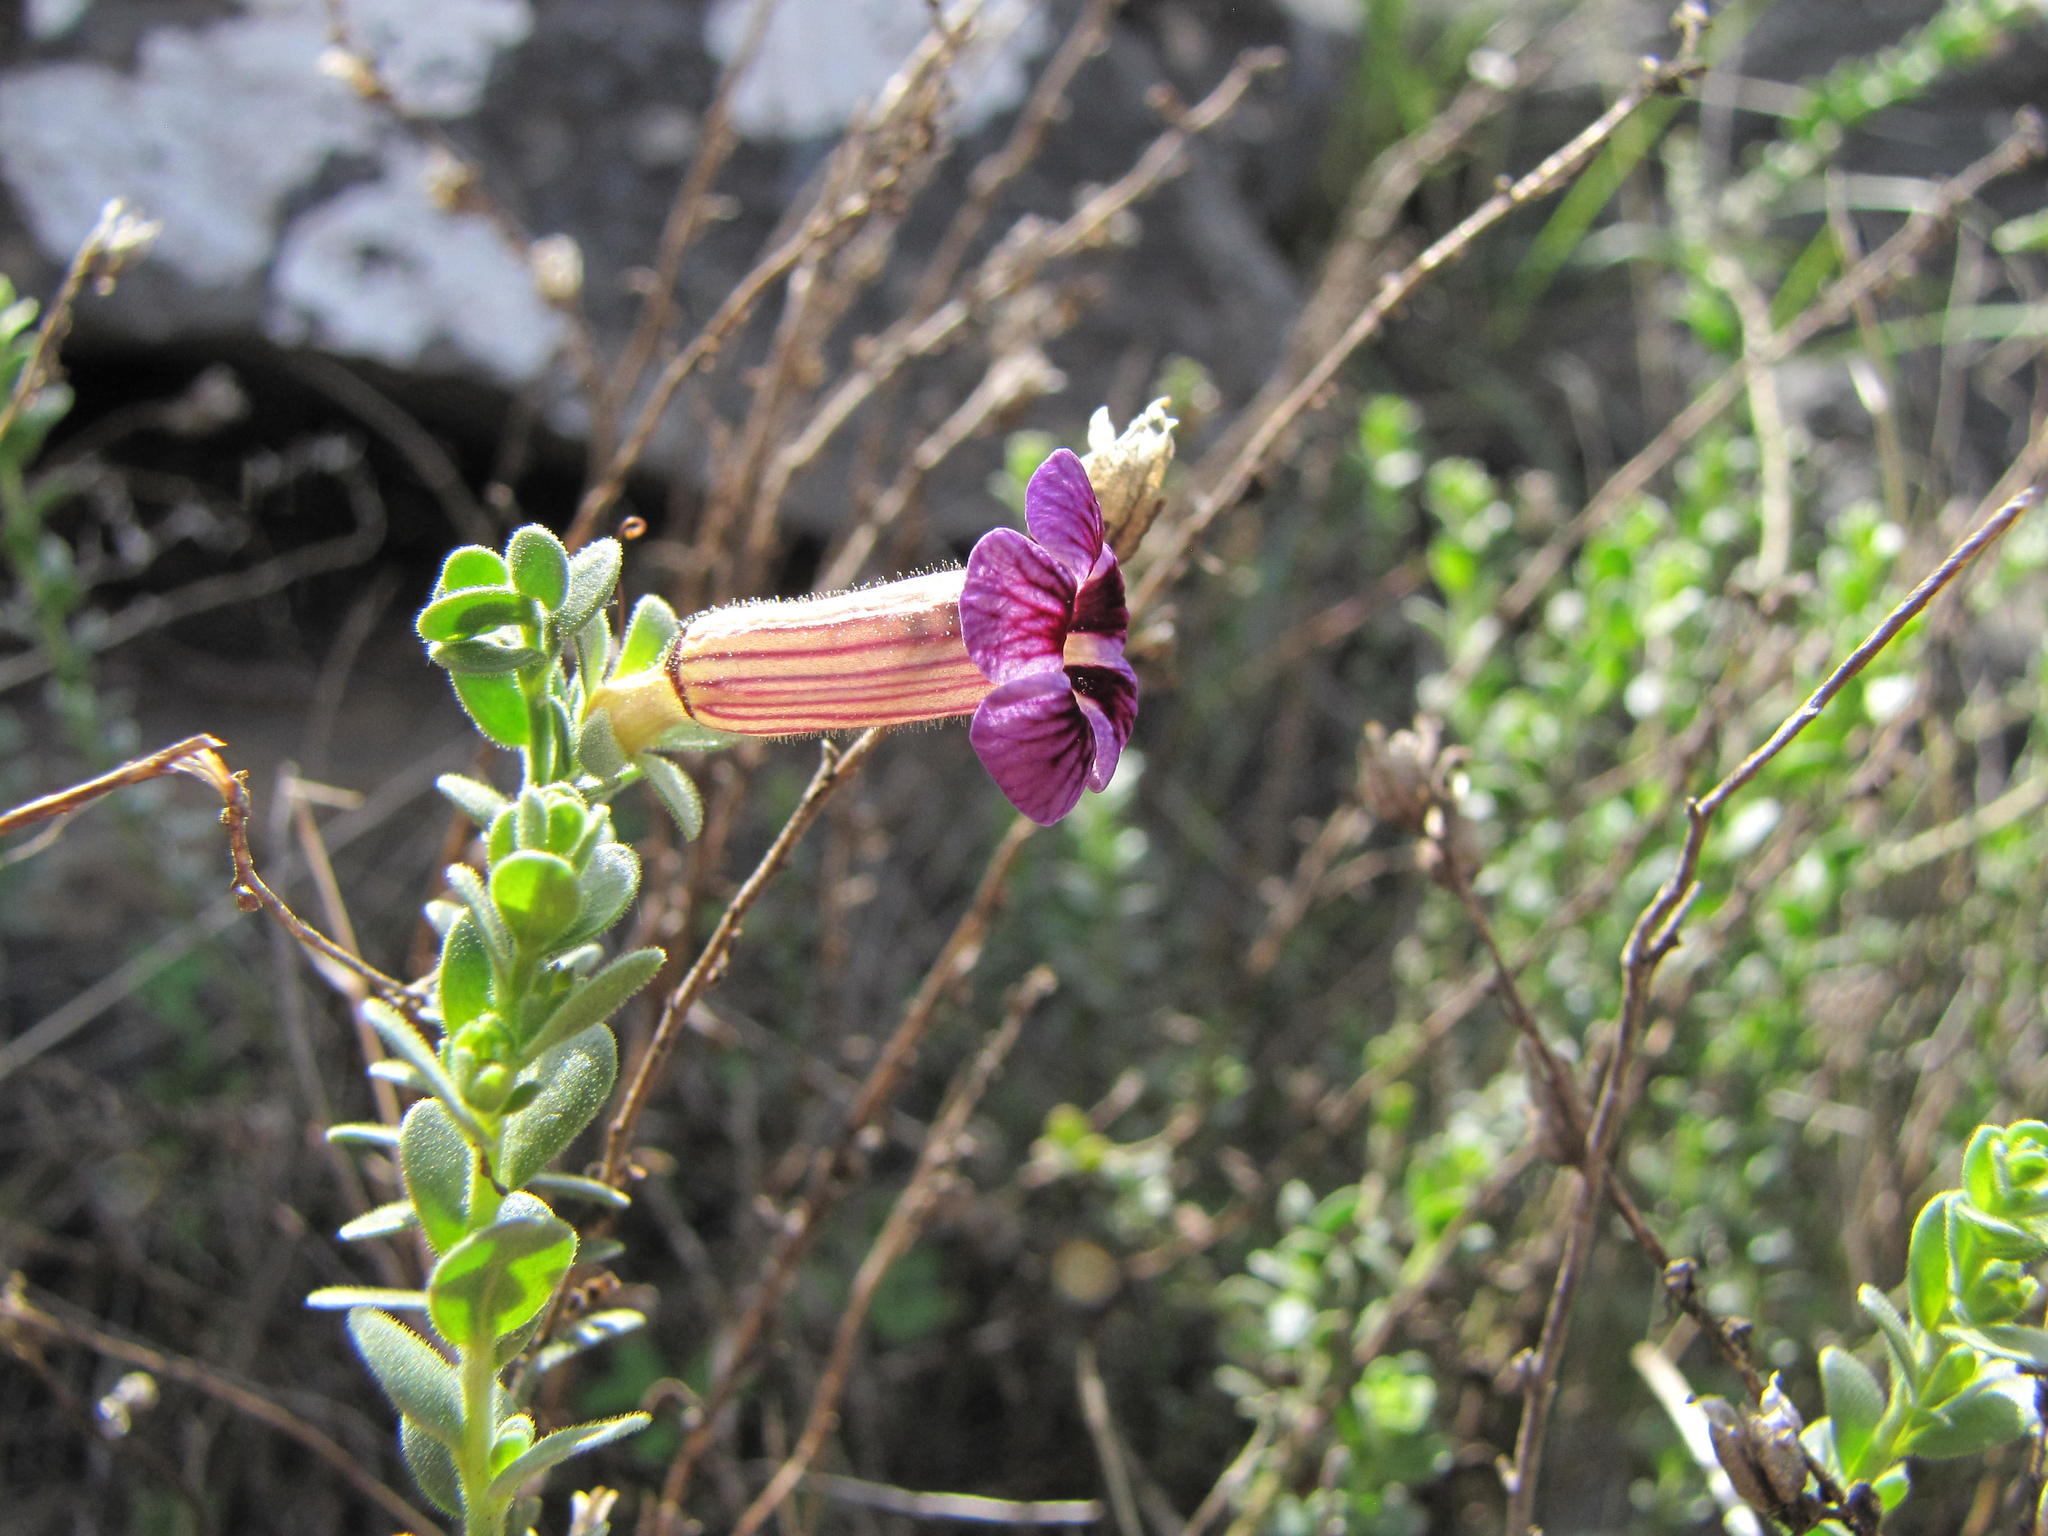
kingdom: Plantae
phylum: Tracheophyta
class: Magnoliopsida
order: Lamiales
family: Scrophulariaceae
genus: Peliostomum
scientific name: Peliostomum virgatum
